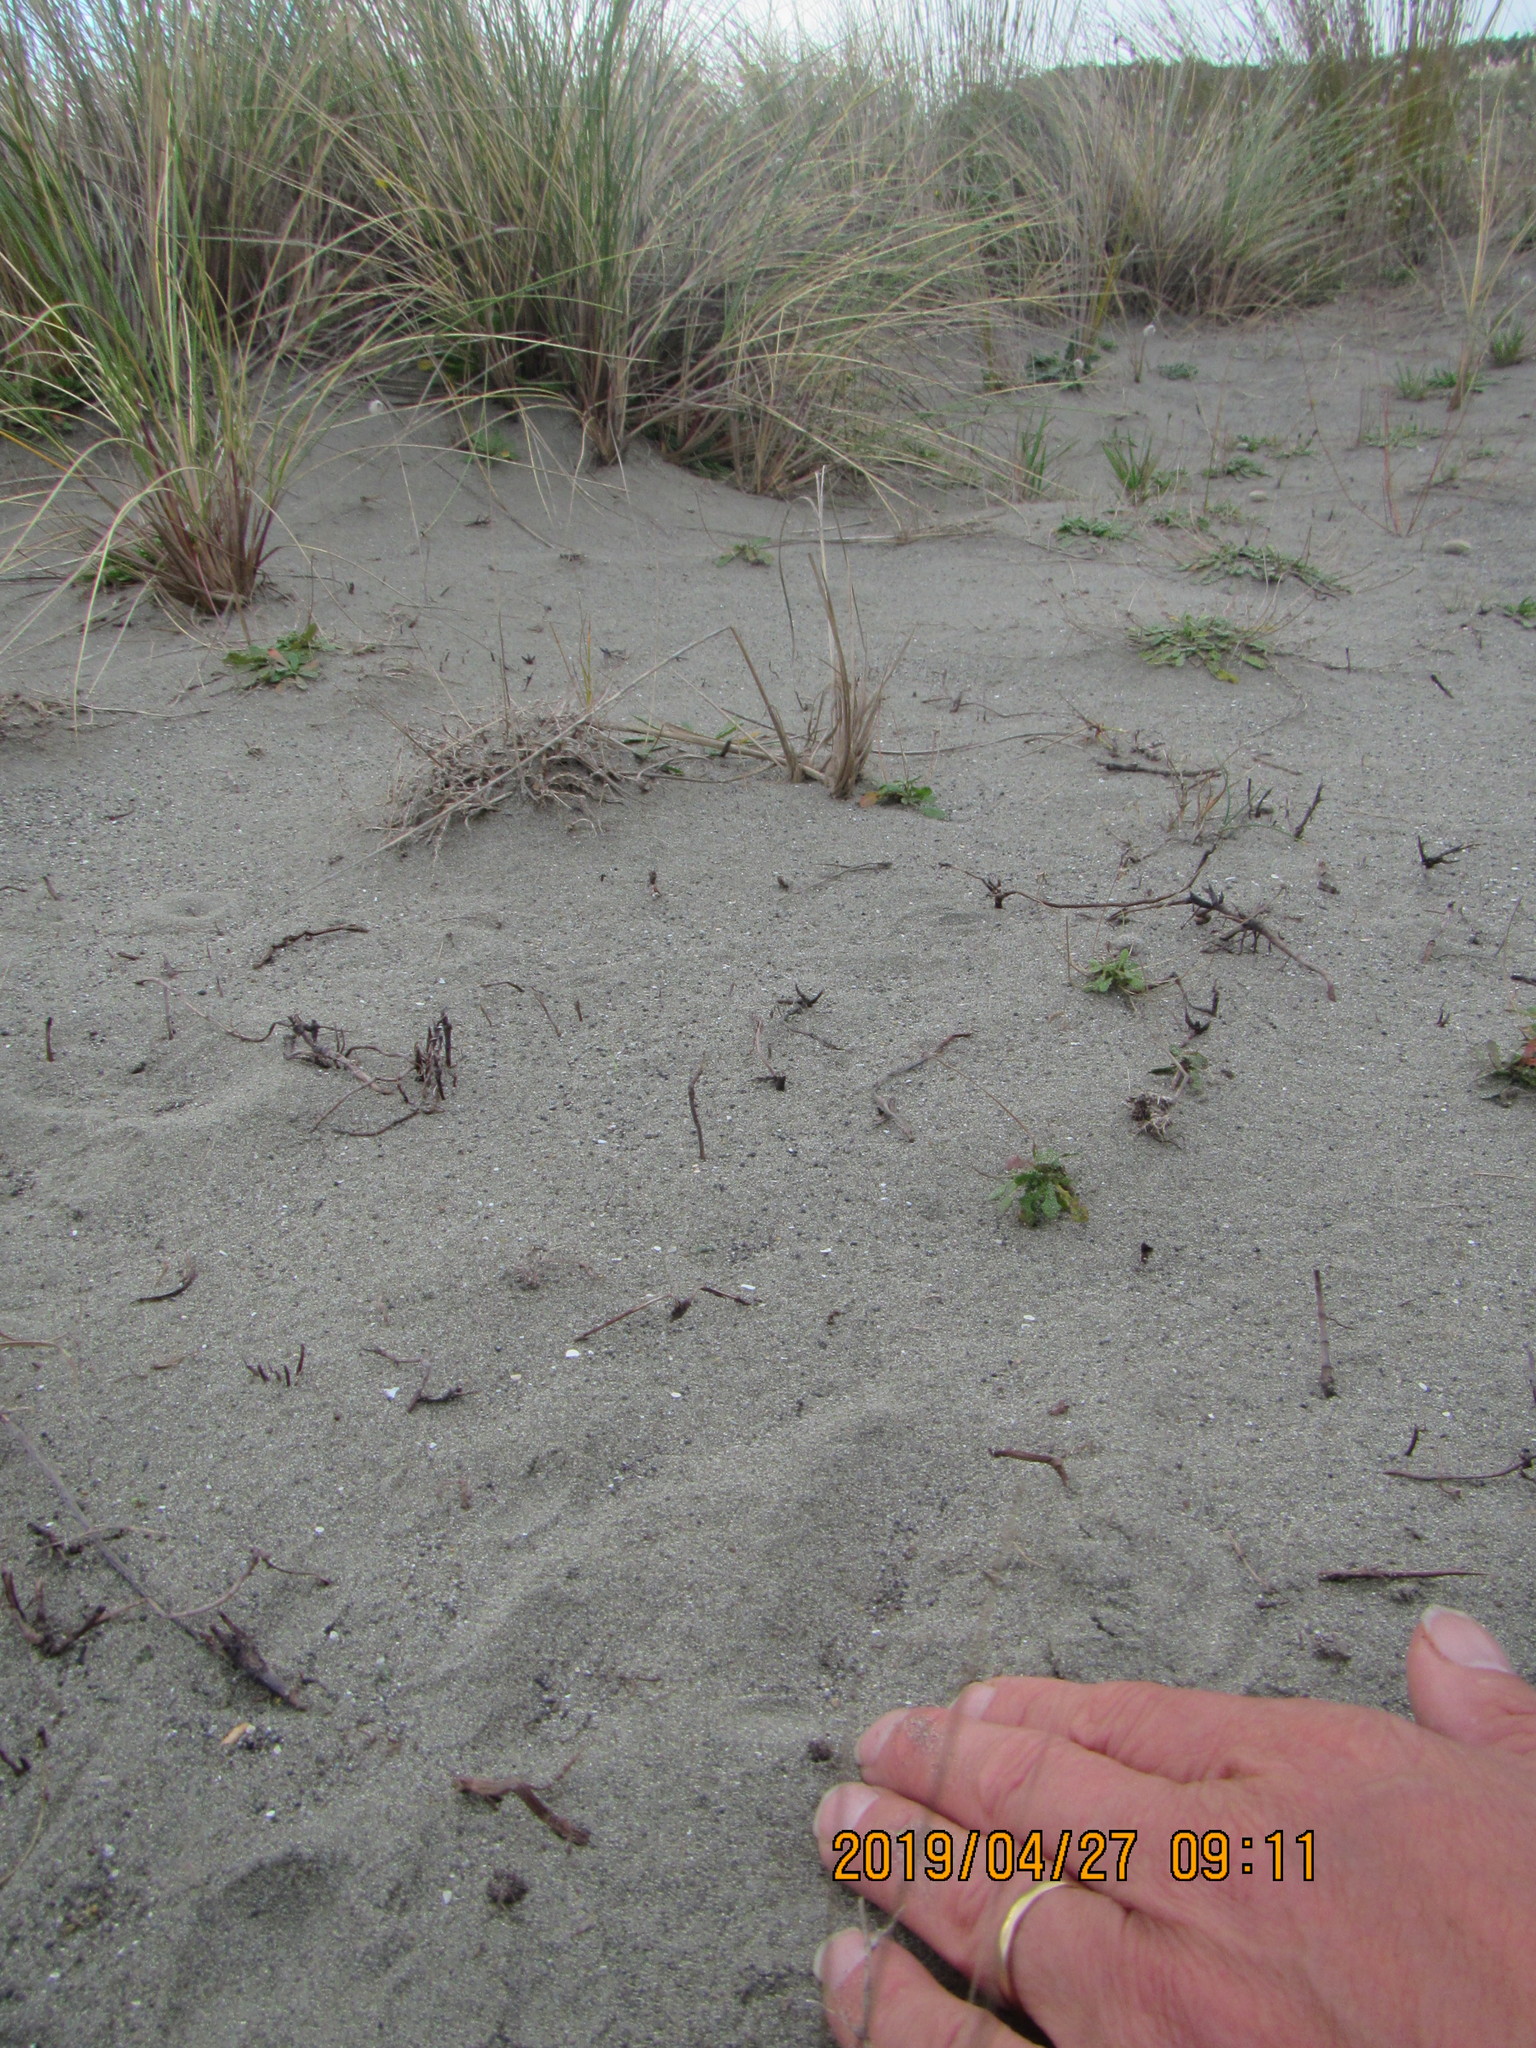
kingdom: Animalia
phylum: Arthropoda
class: Arachnida
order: Araneae
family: Lycosidae
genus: Anoteropsis
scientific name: Anoteropsis litoralis
